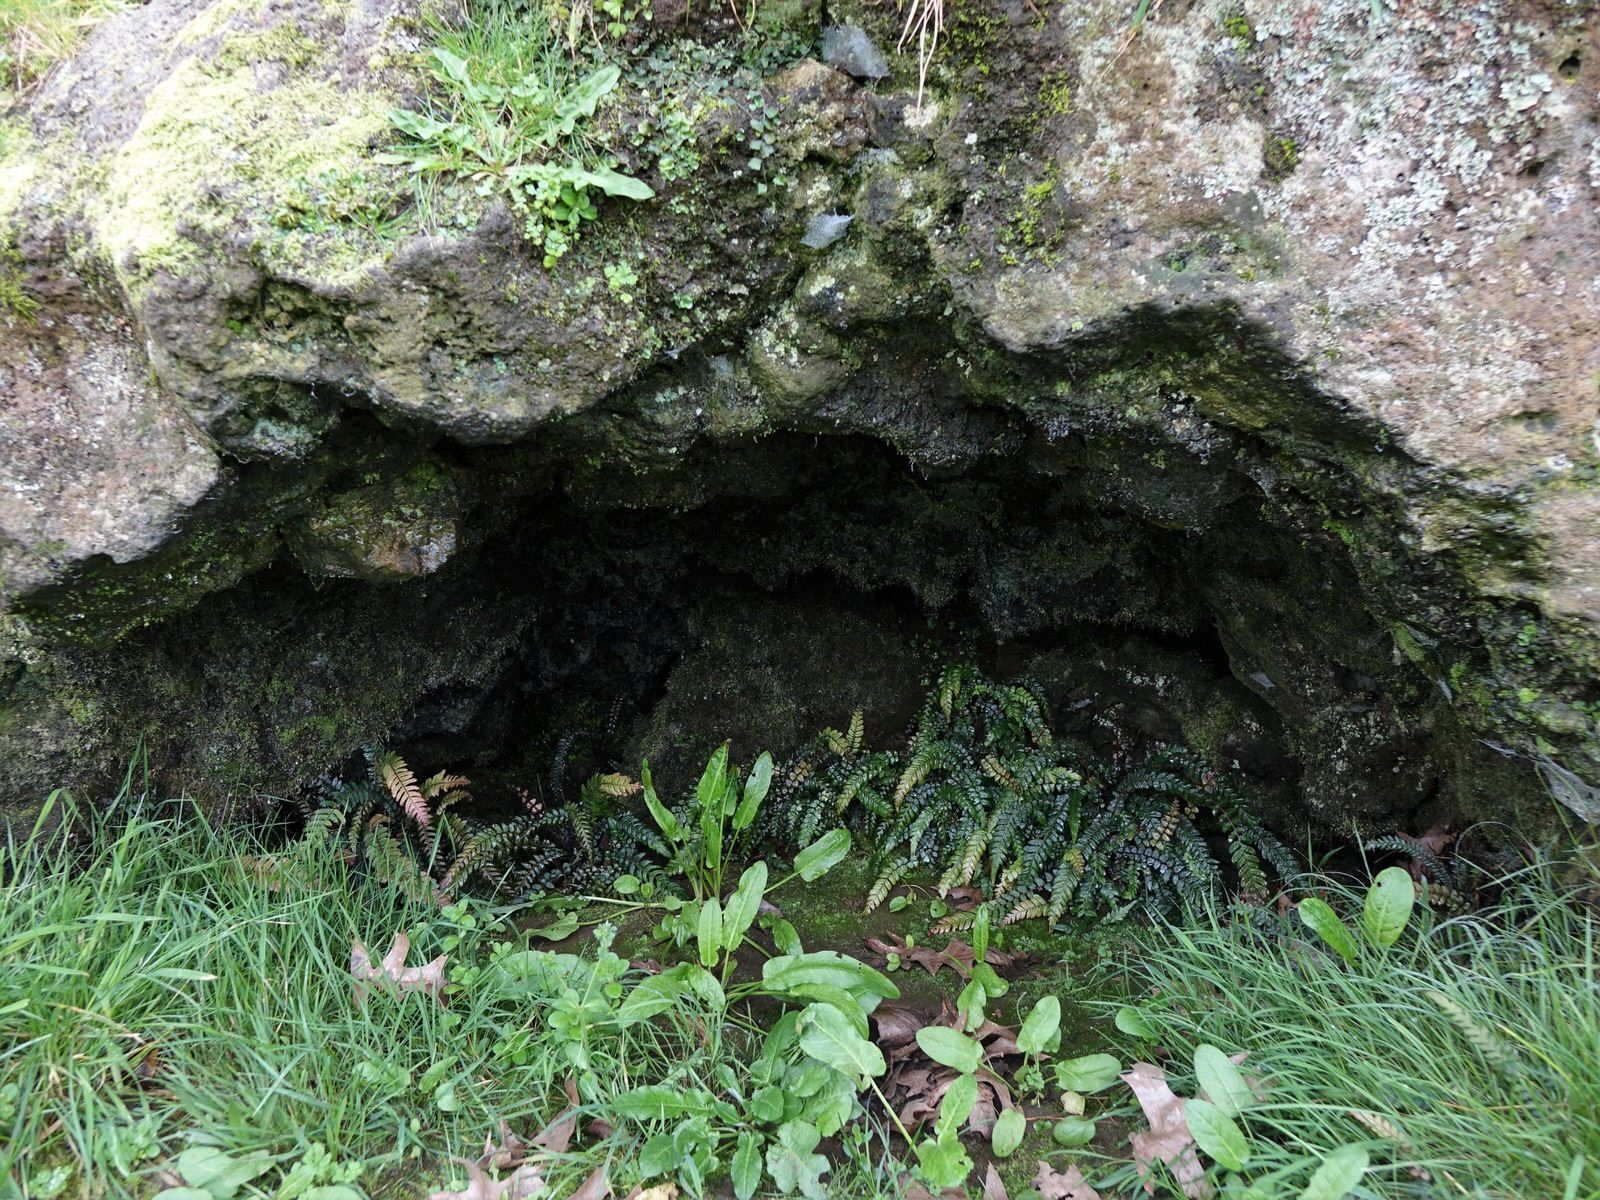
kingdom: Plantae
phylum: Tracheophyta
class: Polypodiopsida
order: Polypodiales
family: Blechnaceae
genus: Doodia
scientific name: Doodia australis
